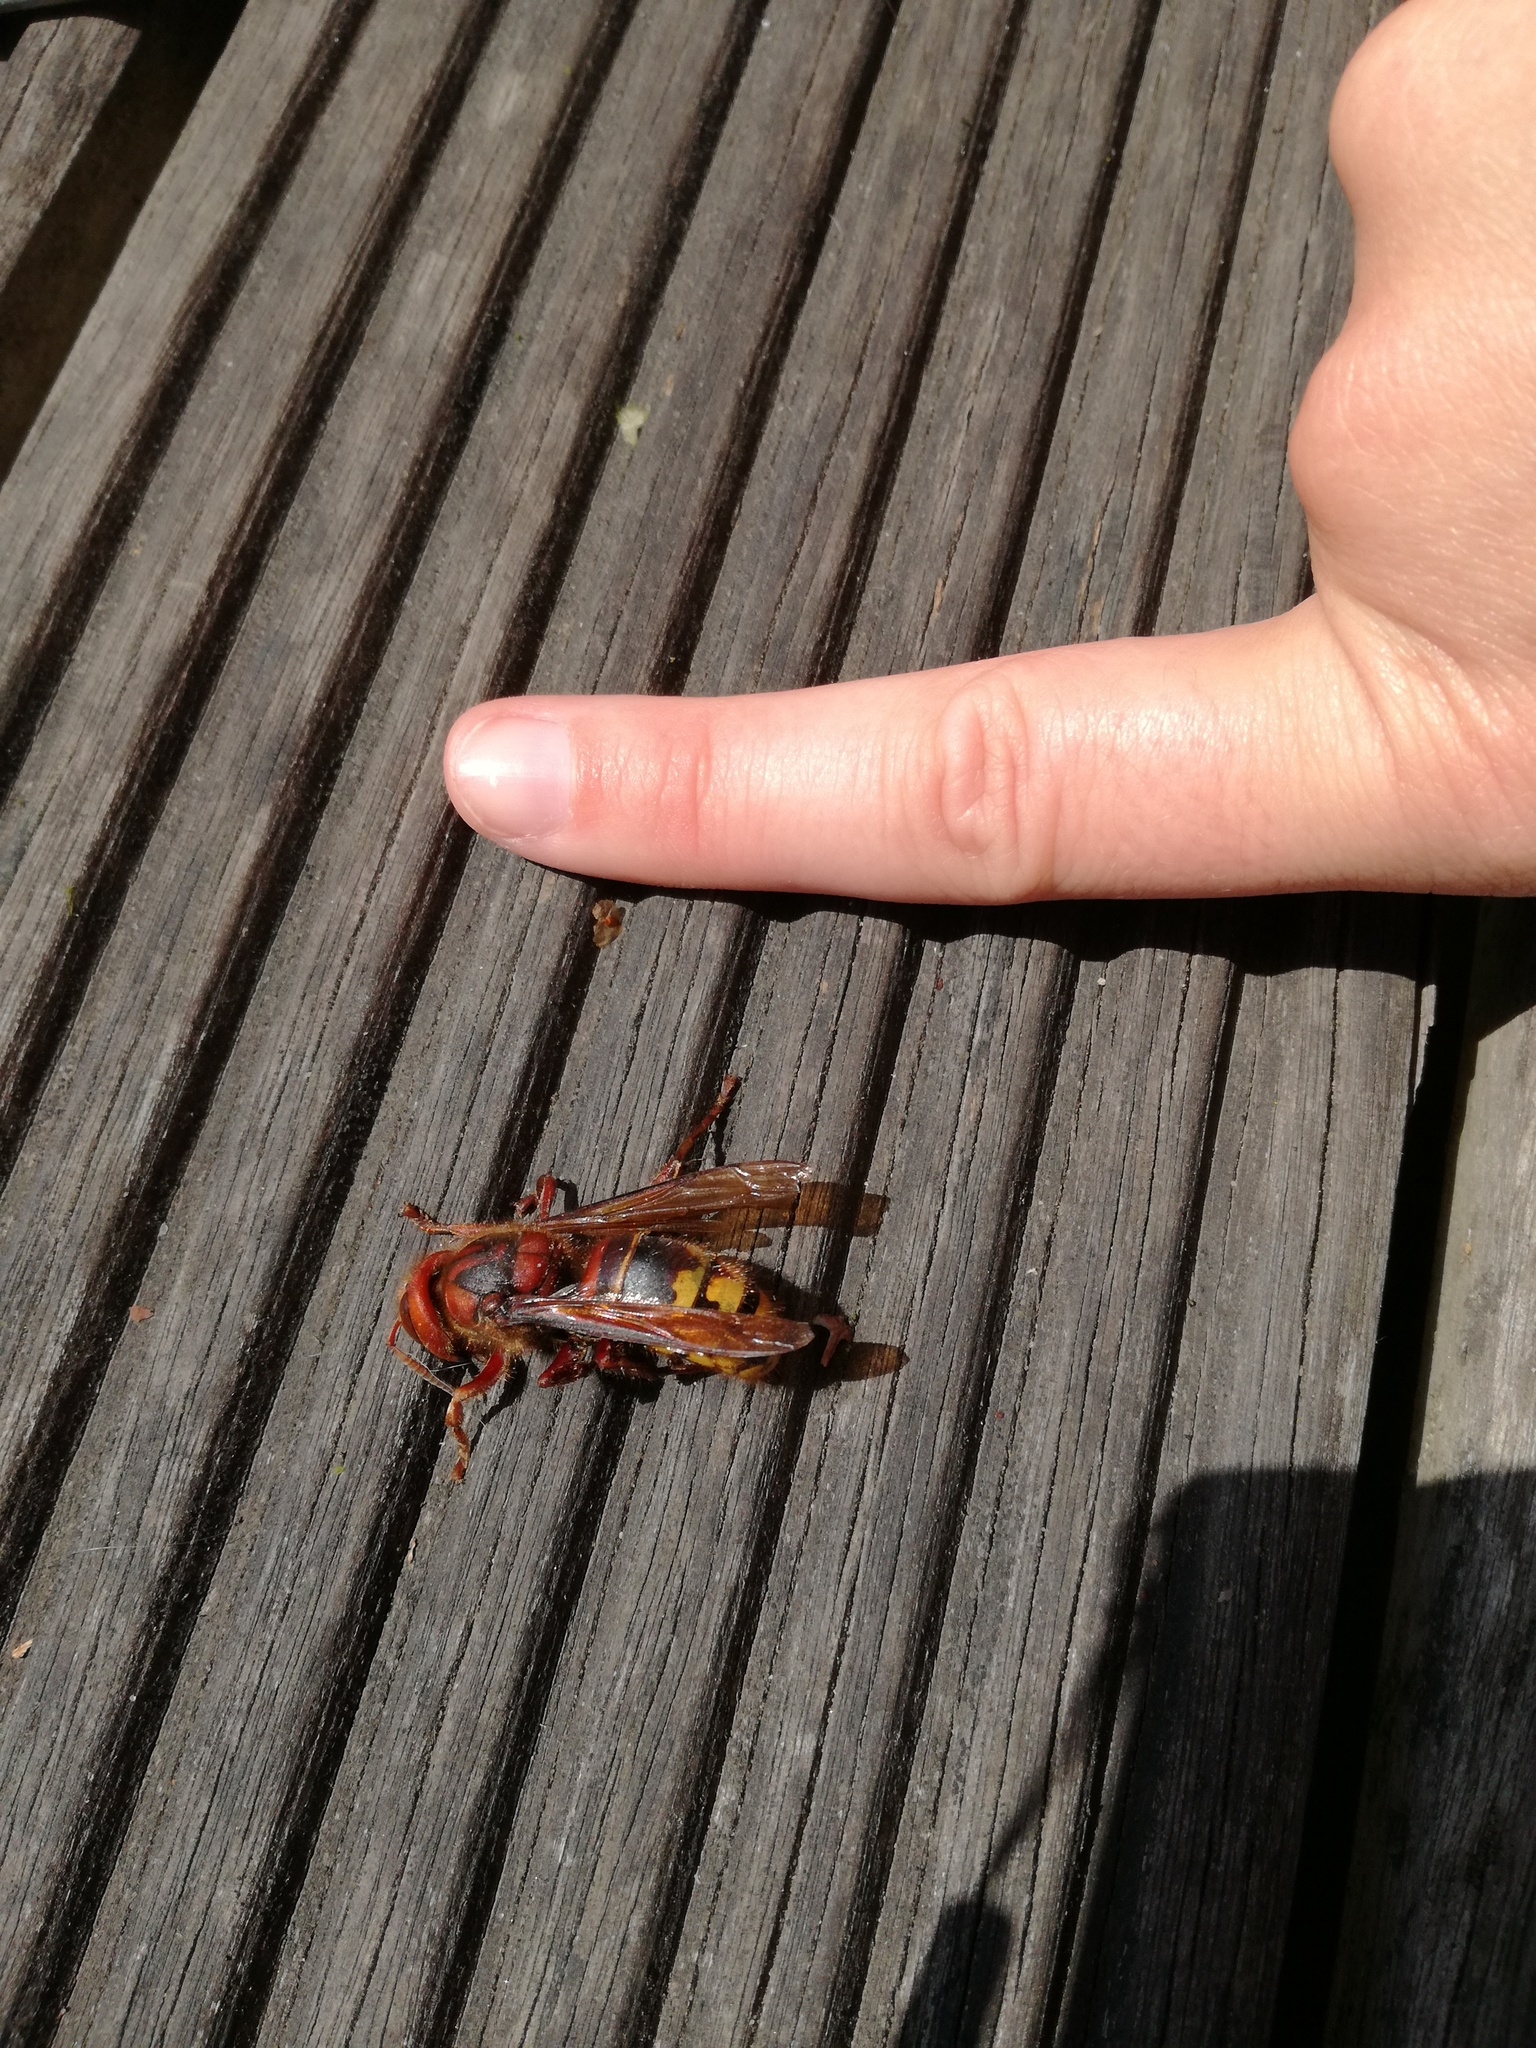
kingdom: Animalia
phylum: Arthropoda
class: Insecta
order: Hymenoptera
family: Vespidae
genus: Vespa
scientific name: Vespa crabro
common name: Hornet
